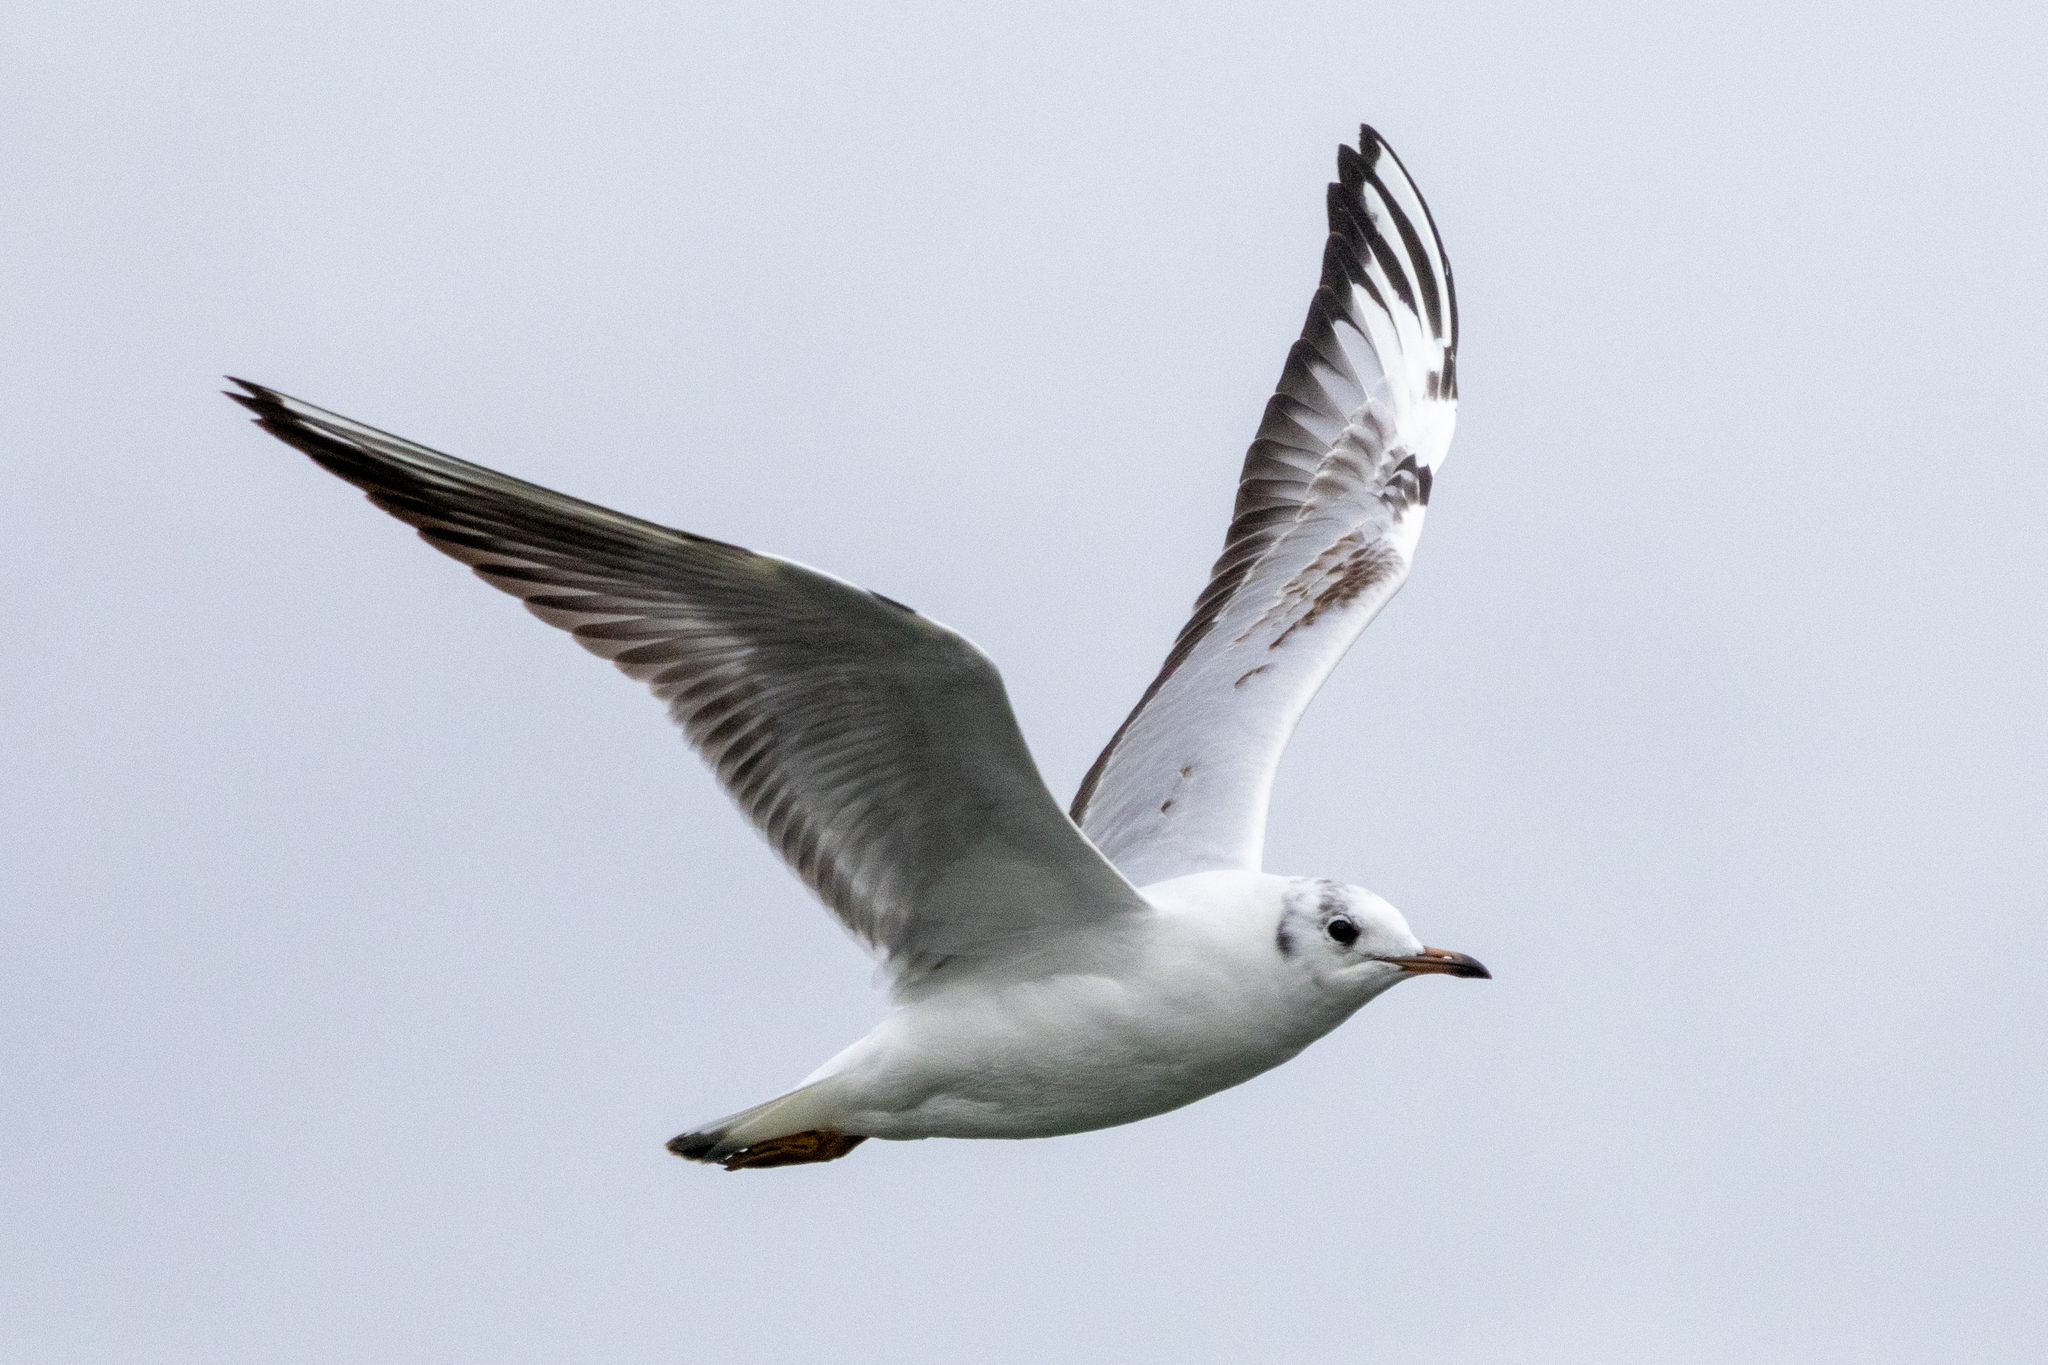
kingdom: Animalia
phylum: Chordata
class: Aves
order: Charadriiformes
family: Laridae
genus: Chroicocephalus
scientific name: Chroicocephalus ridibundus
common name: Black-headed gull
